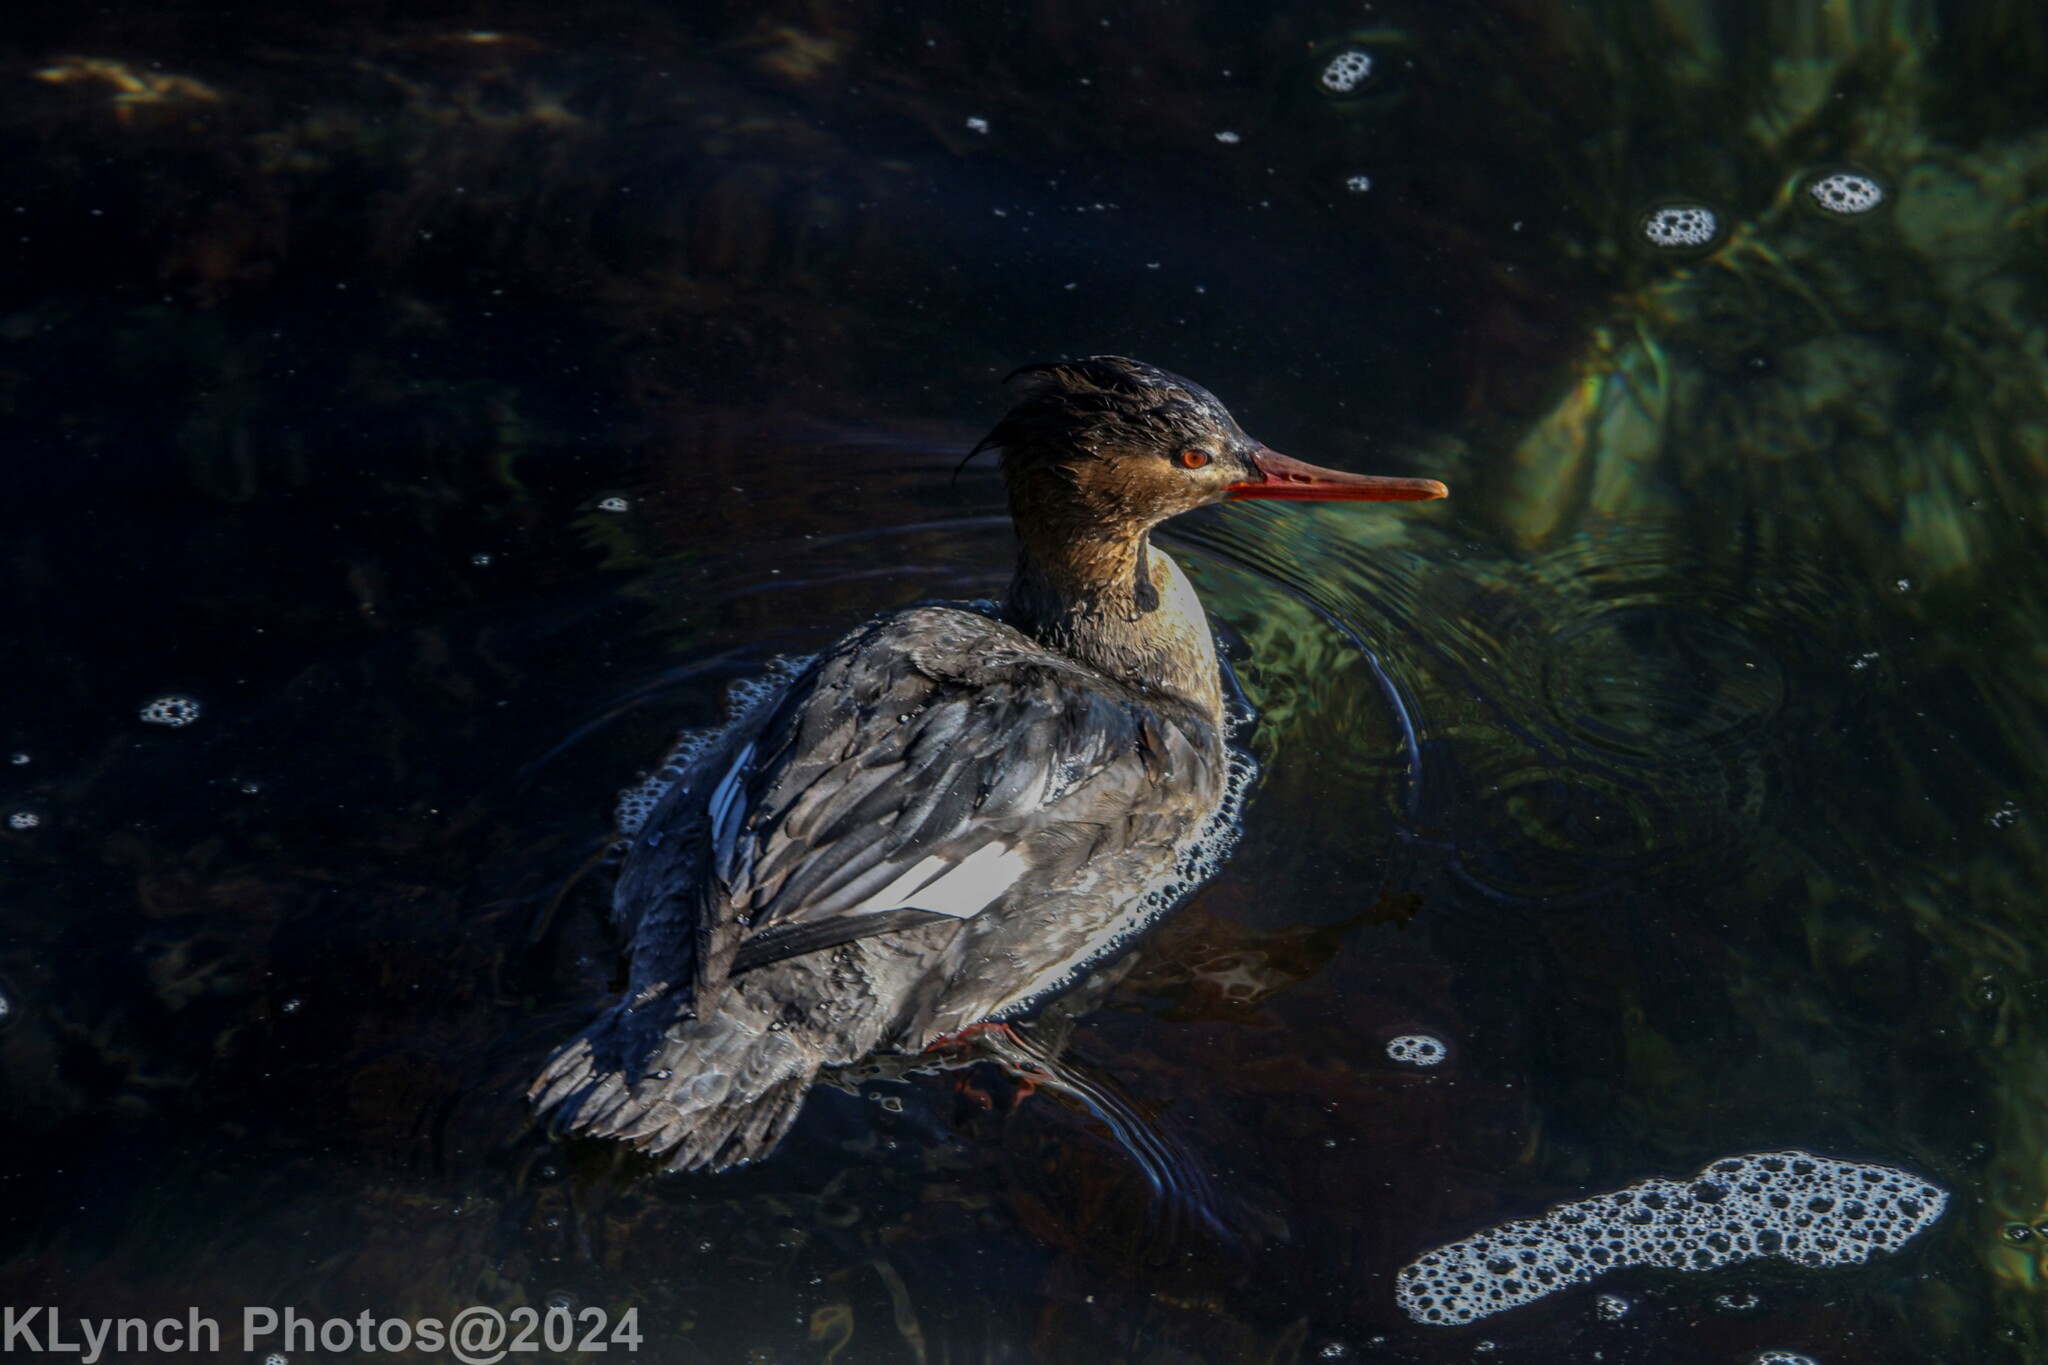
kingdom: Animalia
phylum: Chordata
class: Aves
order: Anseriformes
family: Anatidae
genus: Mergus
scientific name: Mergus serrator
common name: Red-breasted merganser
